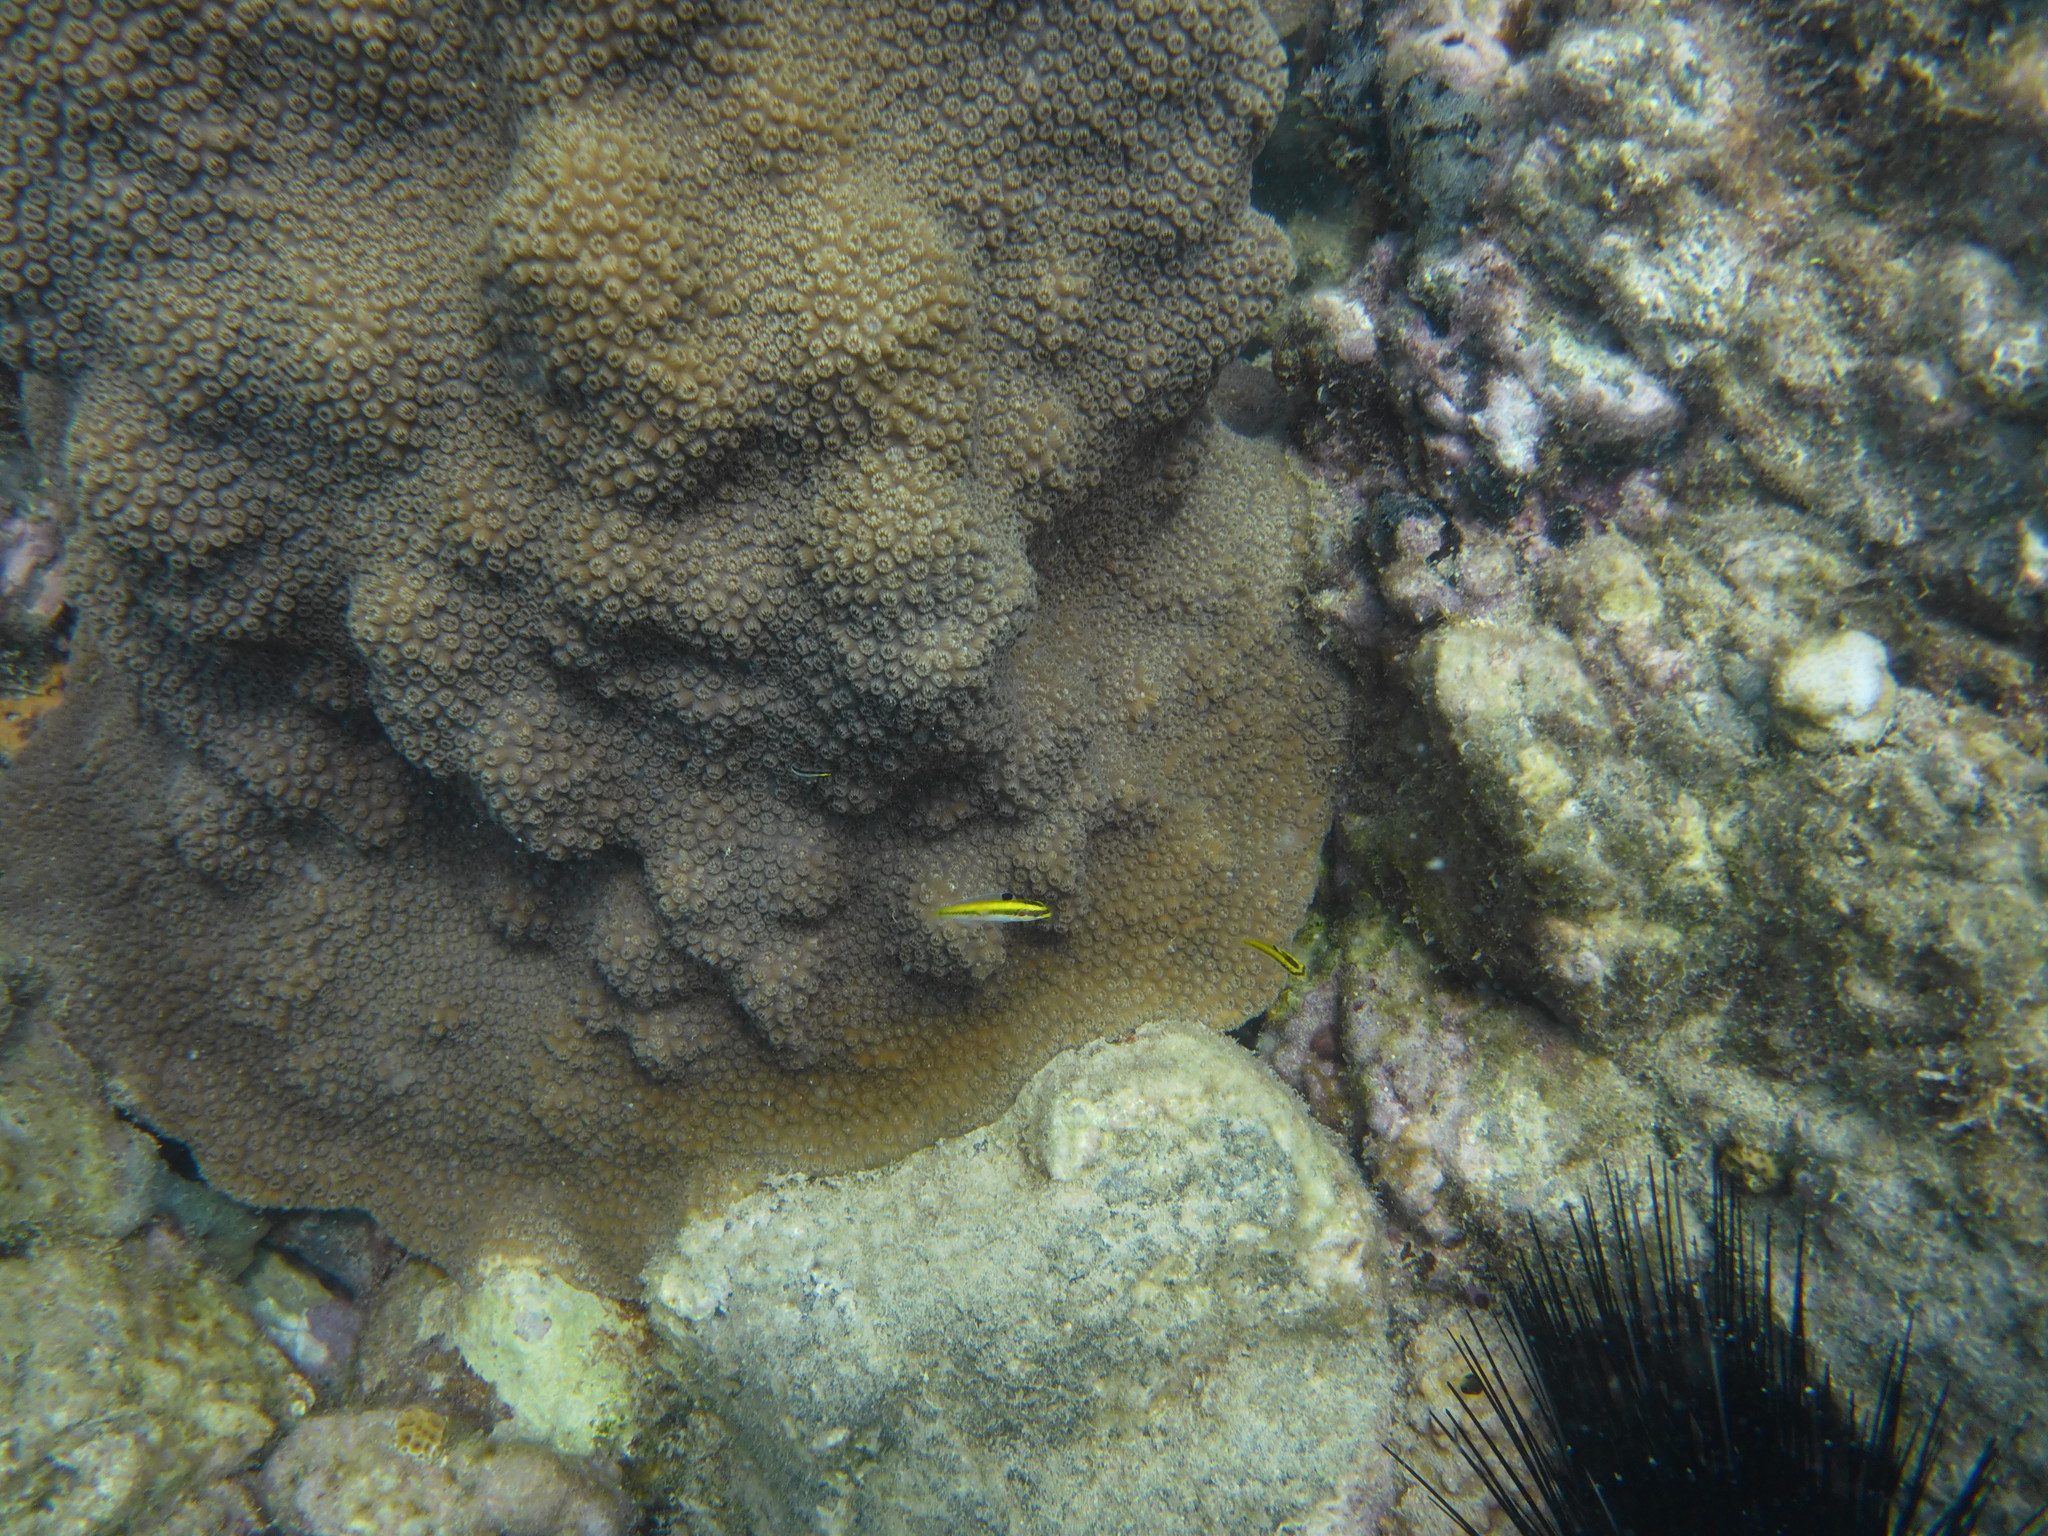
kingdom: Animalia
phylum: Chordata
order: Perciformes
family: Labridae
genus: Thalassoma
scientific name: Thalassoma bifasciatum
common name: Bluehead wrasse
